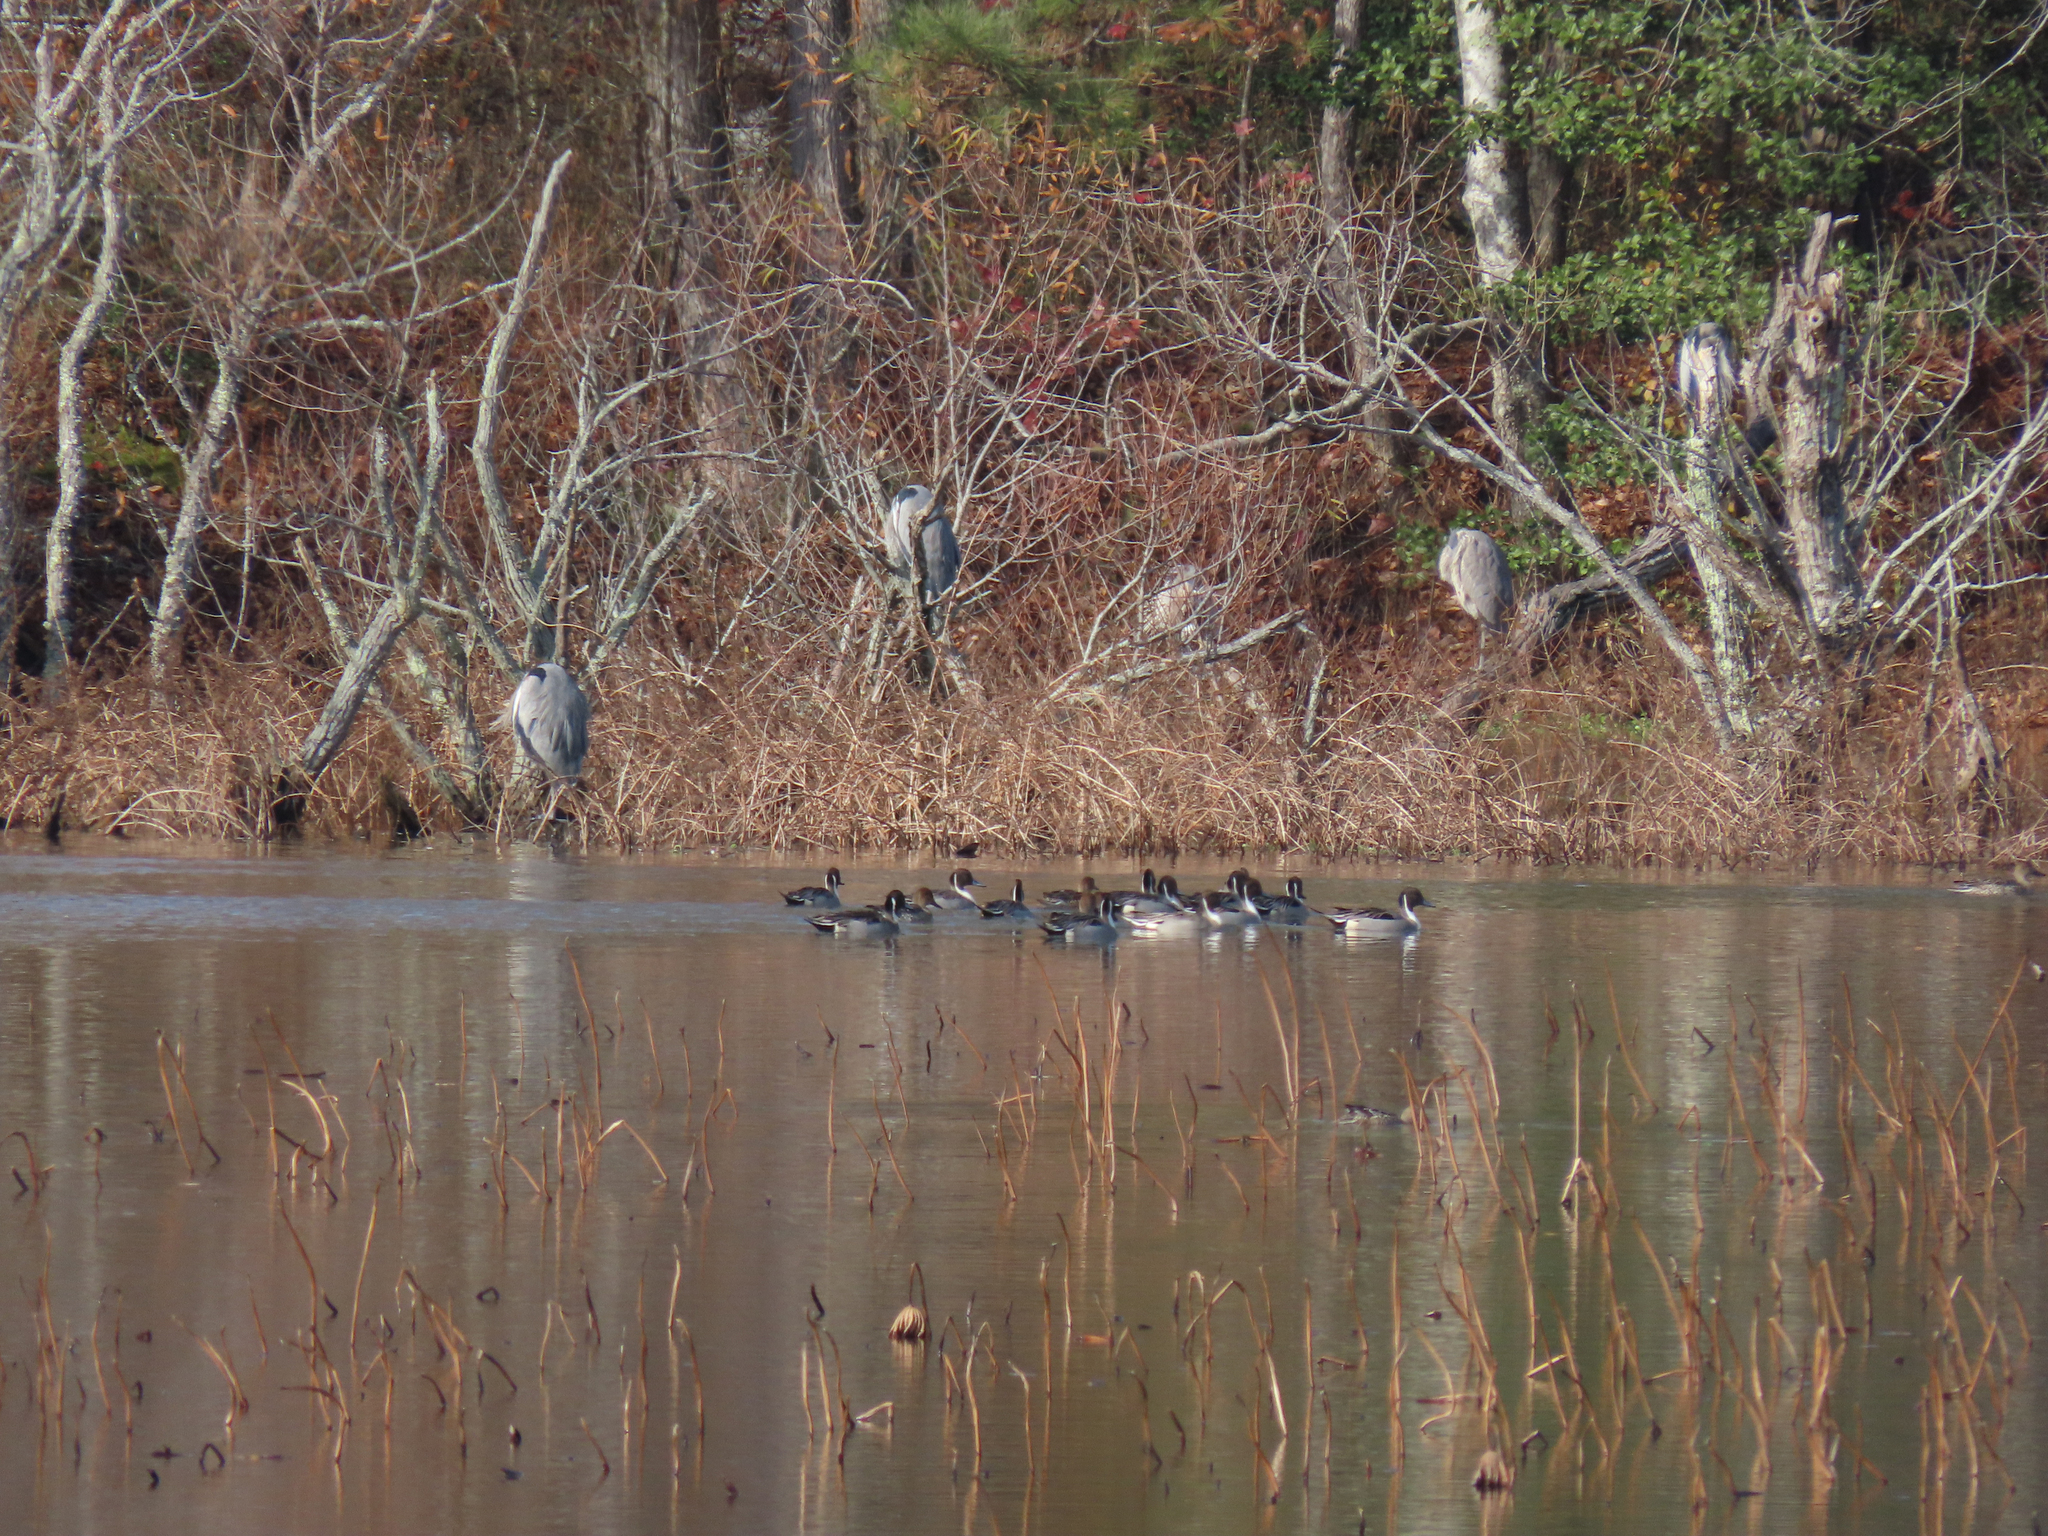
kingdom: Animalia
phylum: Chordata
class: Aves
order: Anseriformes
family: Anatidae
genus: Anas
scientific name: Anas acuta
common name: Northern pintail
